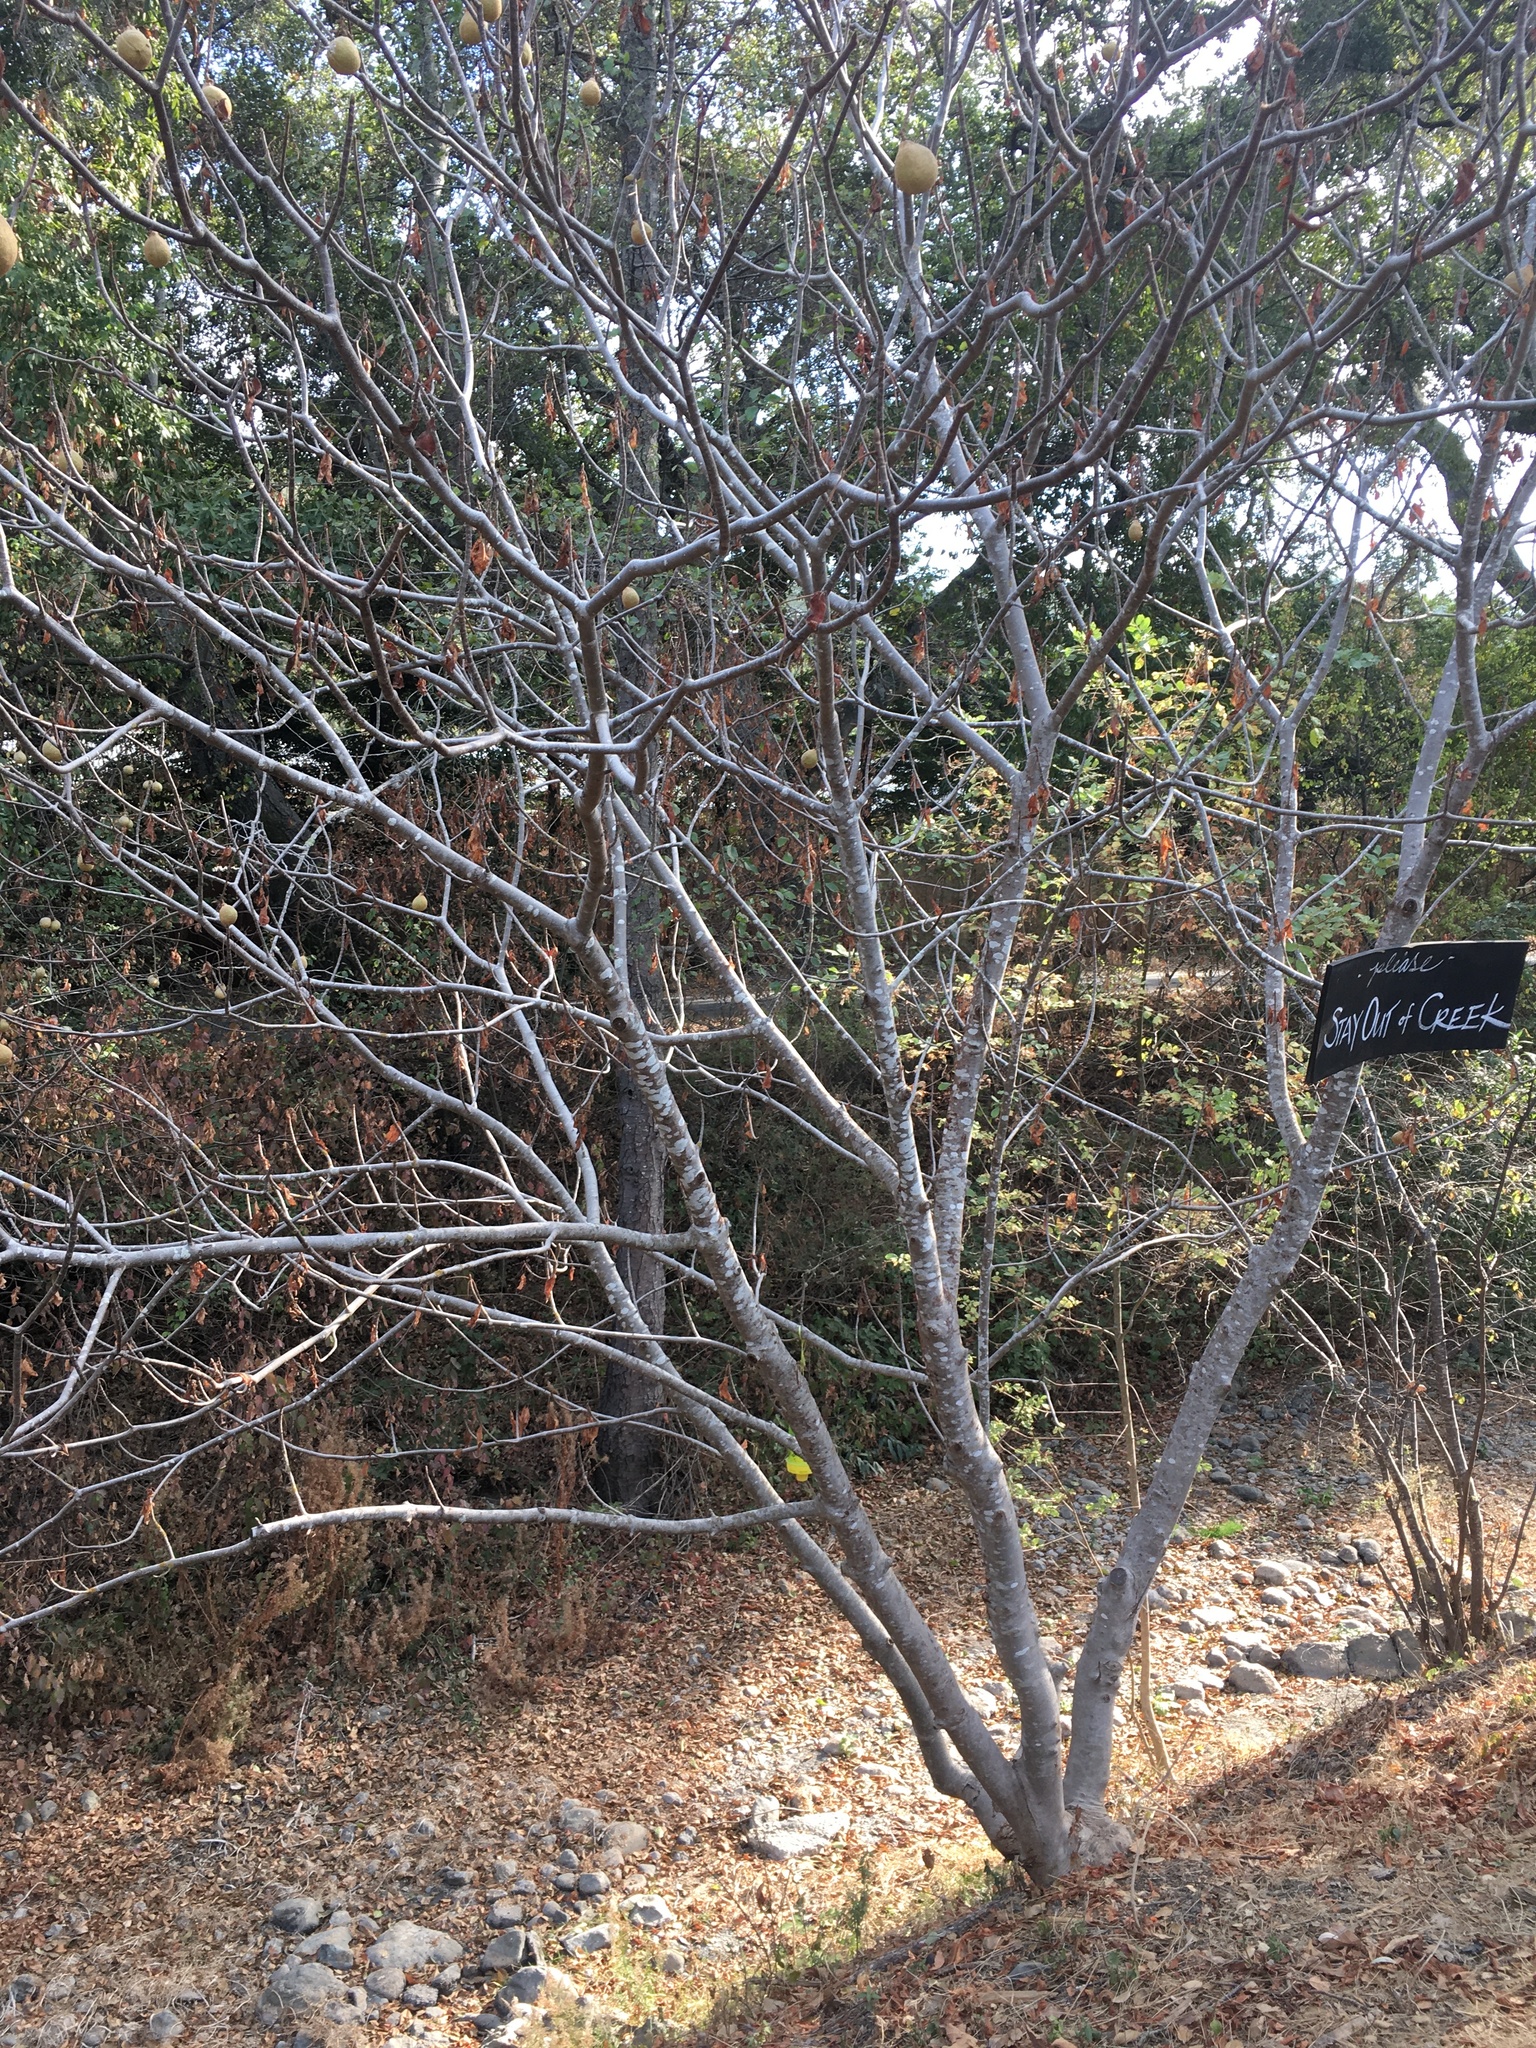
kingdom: Plantae
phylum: Tracheophyta
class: Magnoliopsida
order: Sapindales
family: Sapindaceae
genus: Aesculus
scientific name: Aesculus californica
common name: California buckeye
